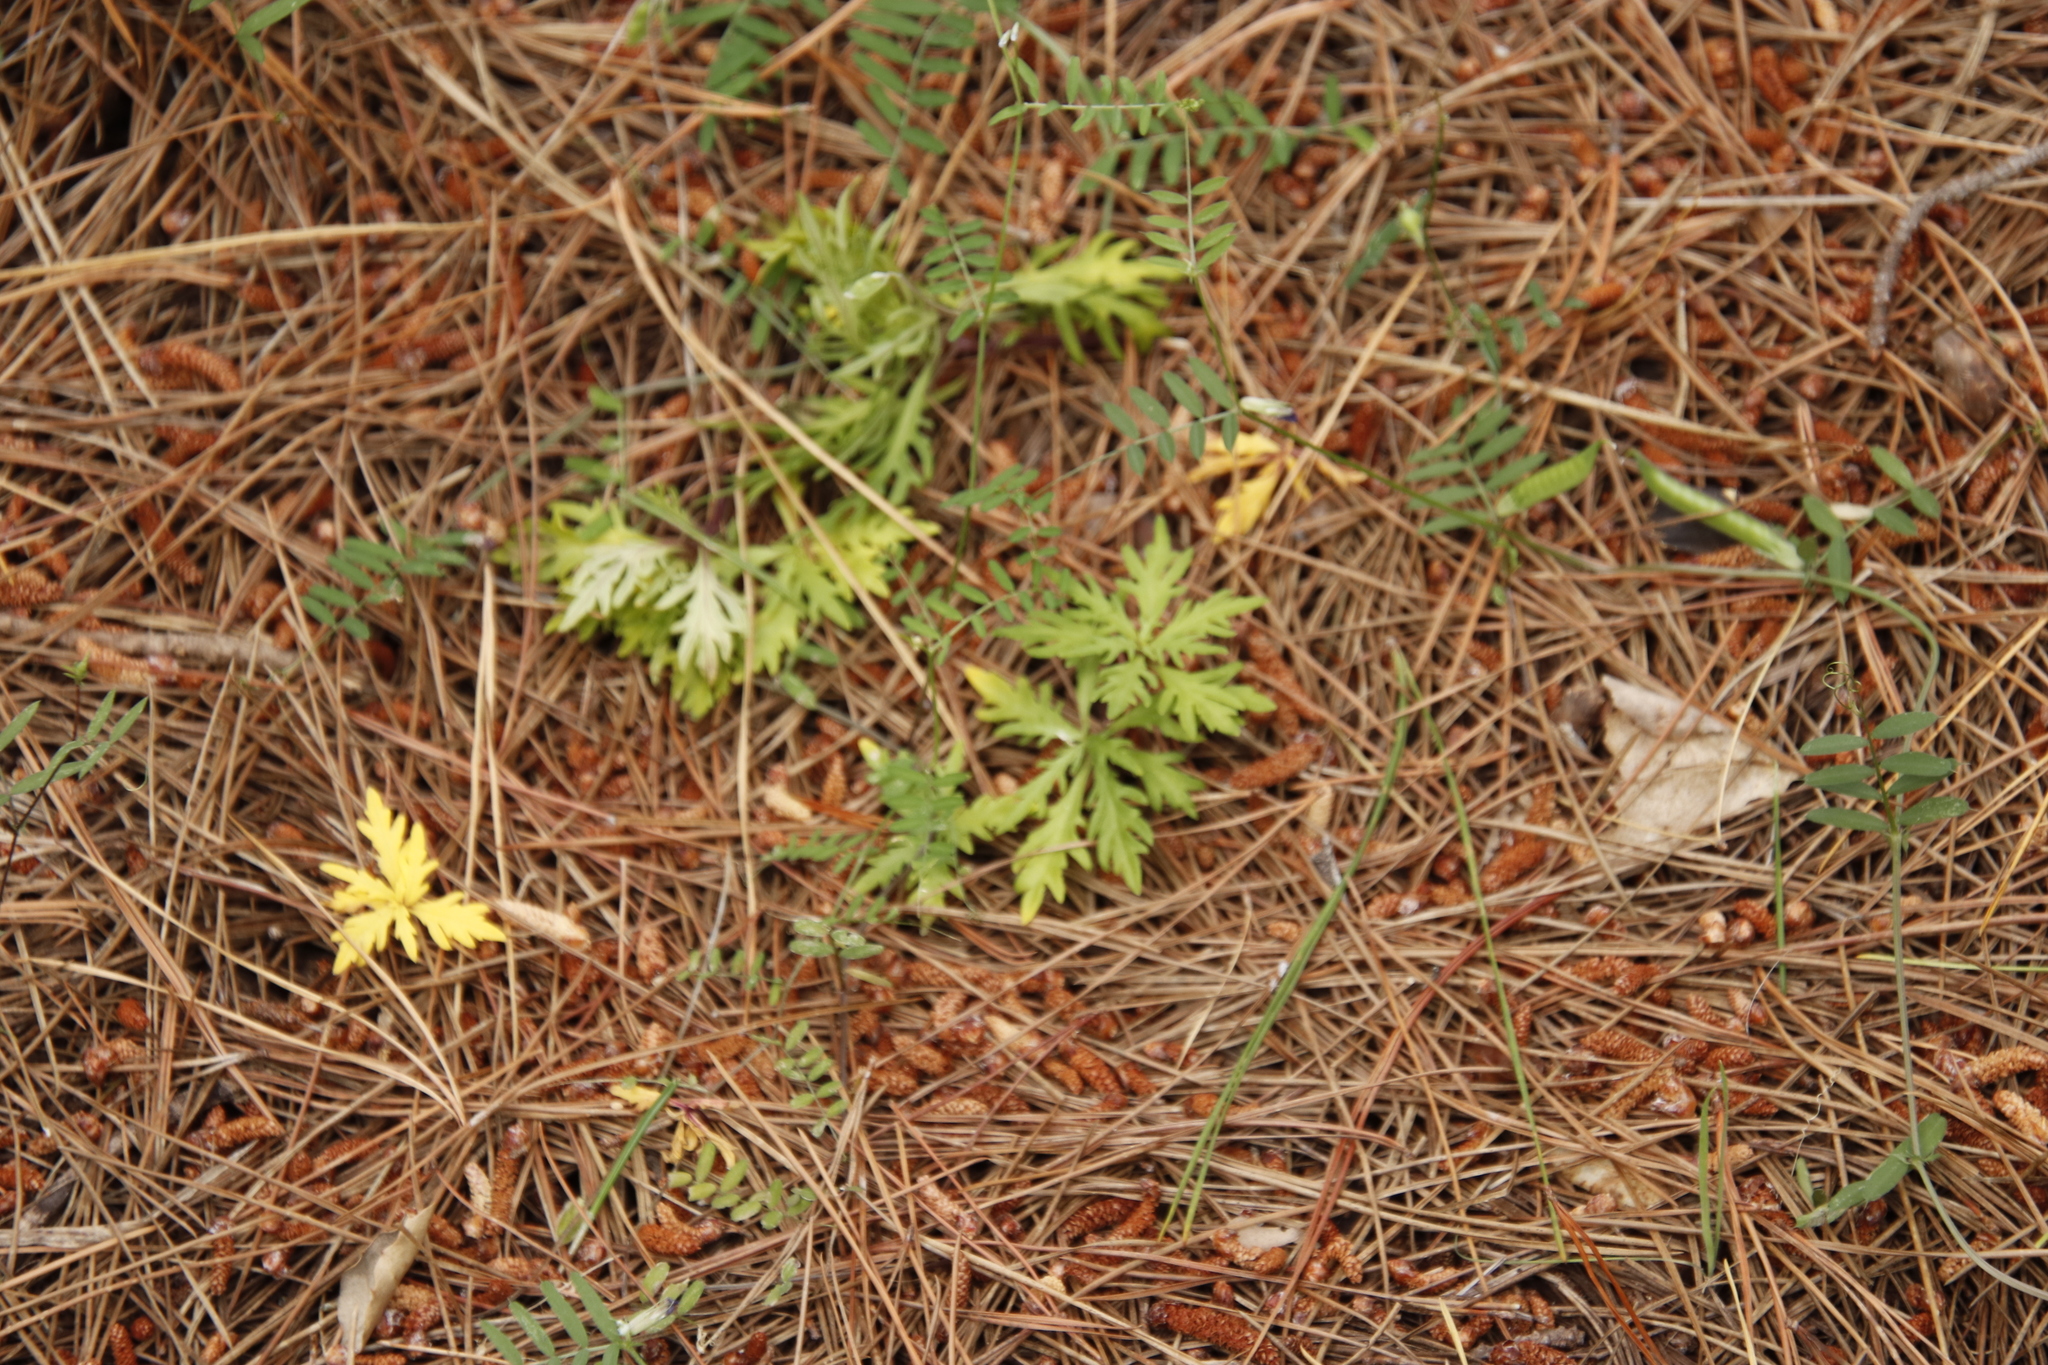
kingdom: Plantae
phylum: Tracheophyta
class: Magnoliopsida
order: Asterales
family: Campanulaceae
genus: Cyphia
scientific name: Cyphia bulbosa
